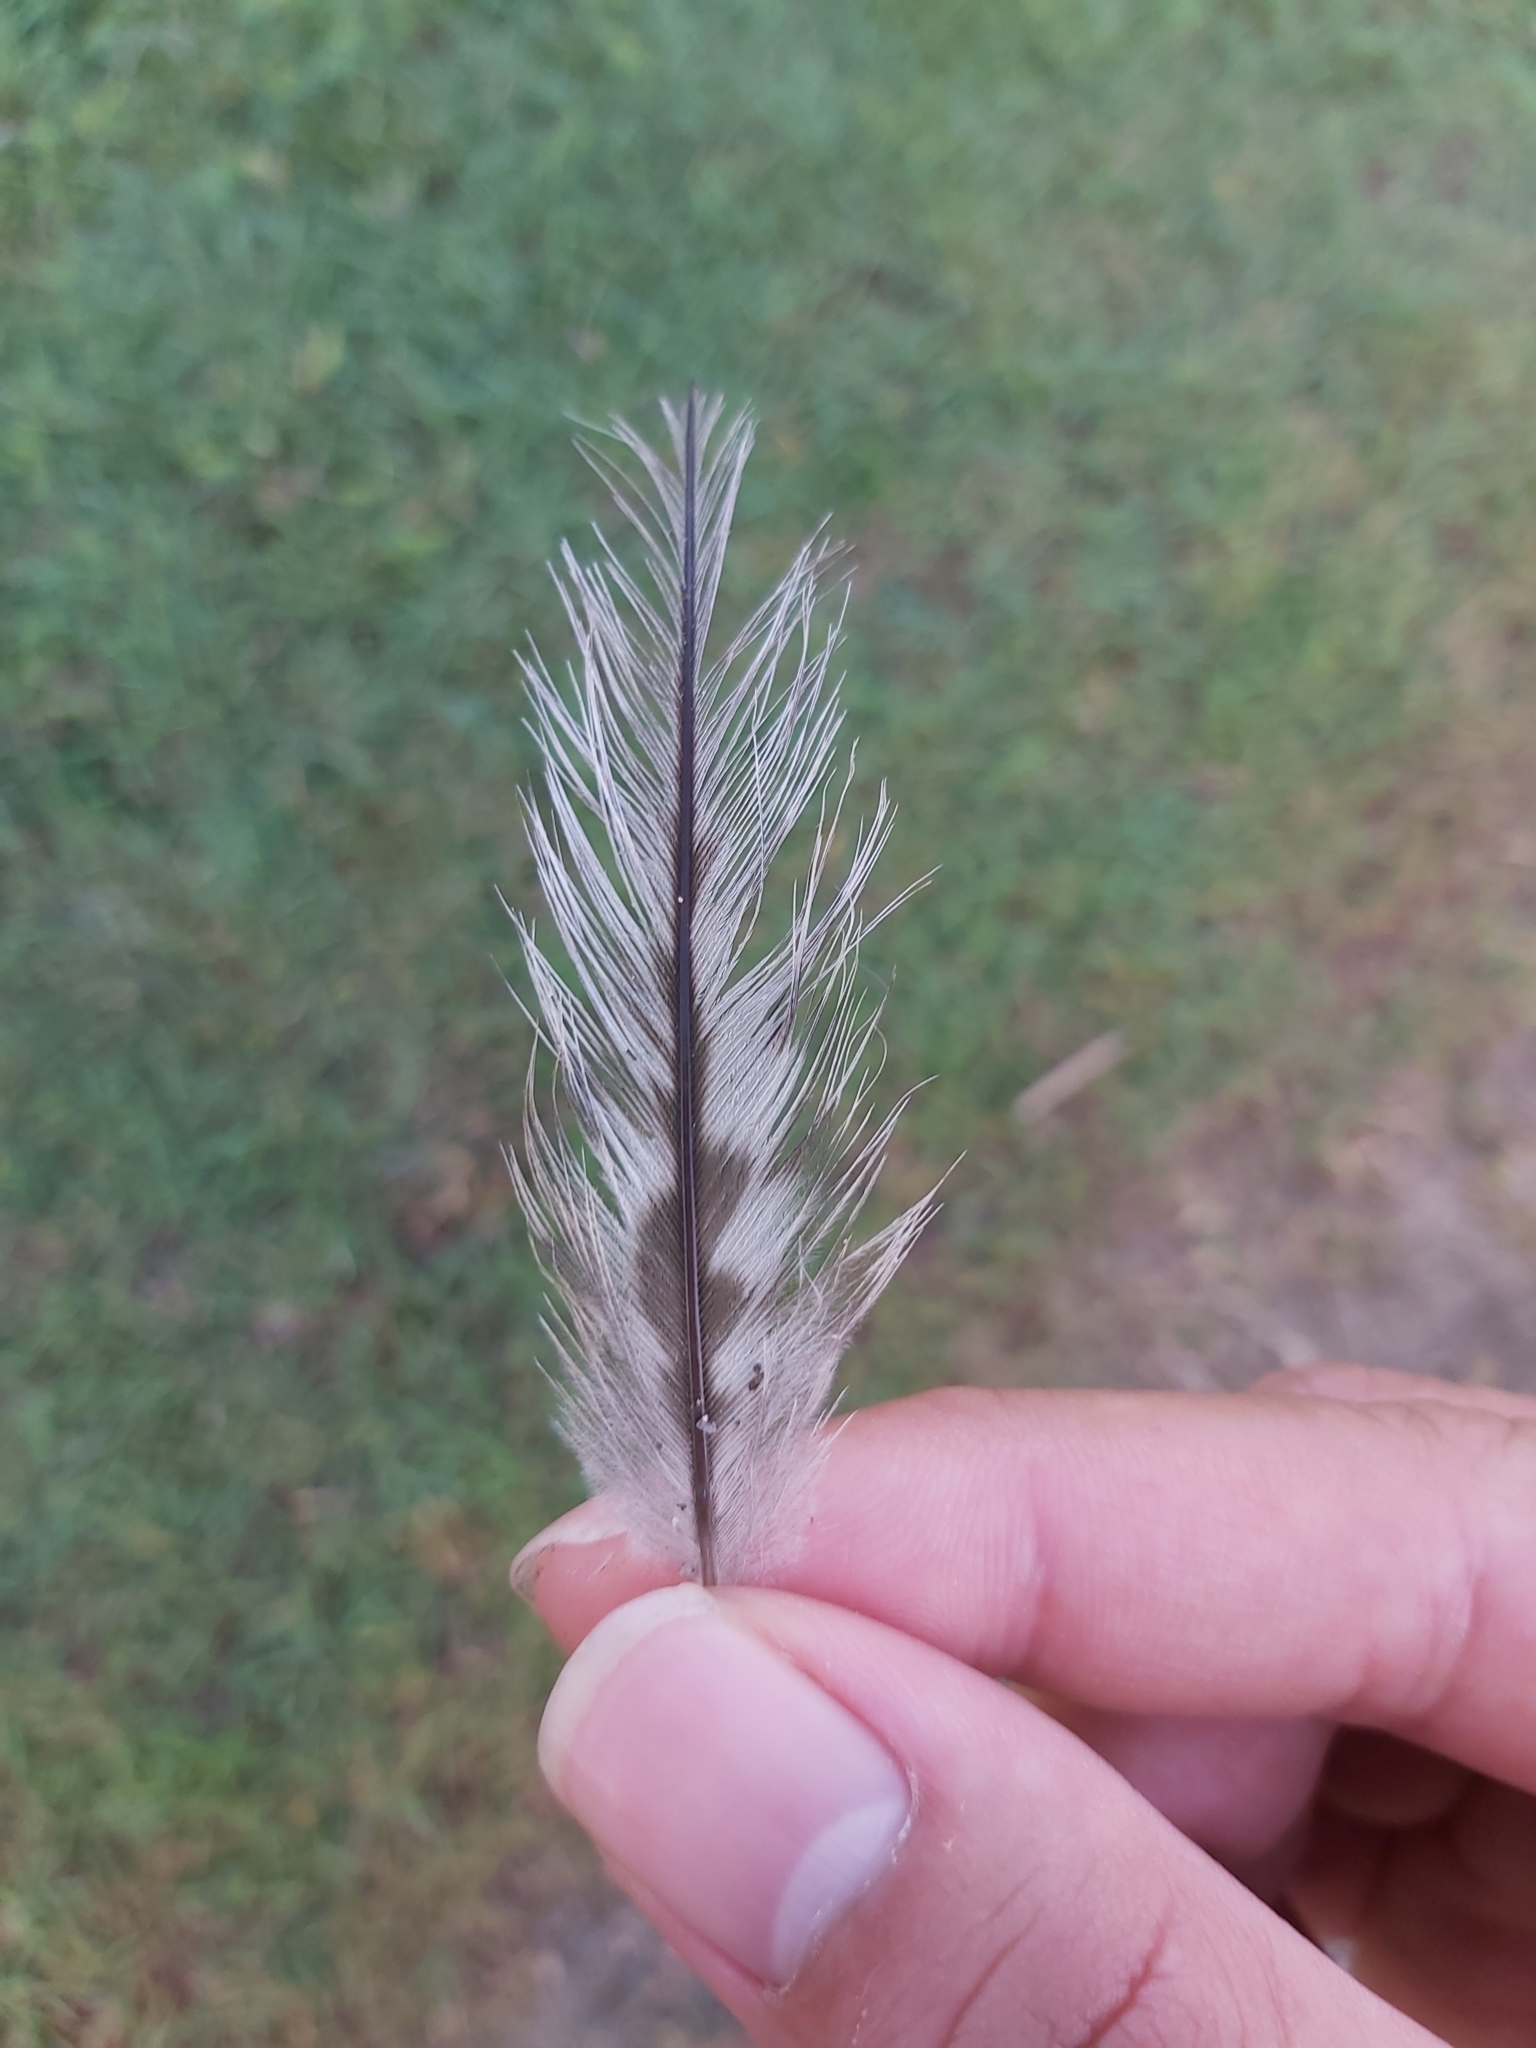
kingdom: Animalia
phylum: Chordata
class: Aves
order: Charadriiformes
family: Burhinidae
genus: Burhinus
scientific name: Burhinus grallarius
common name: Bush stone-curlew
